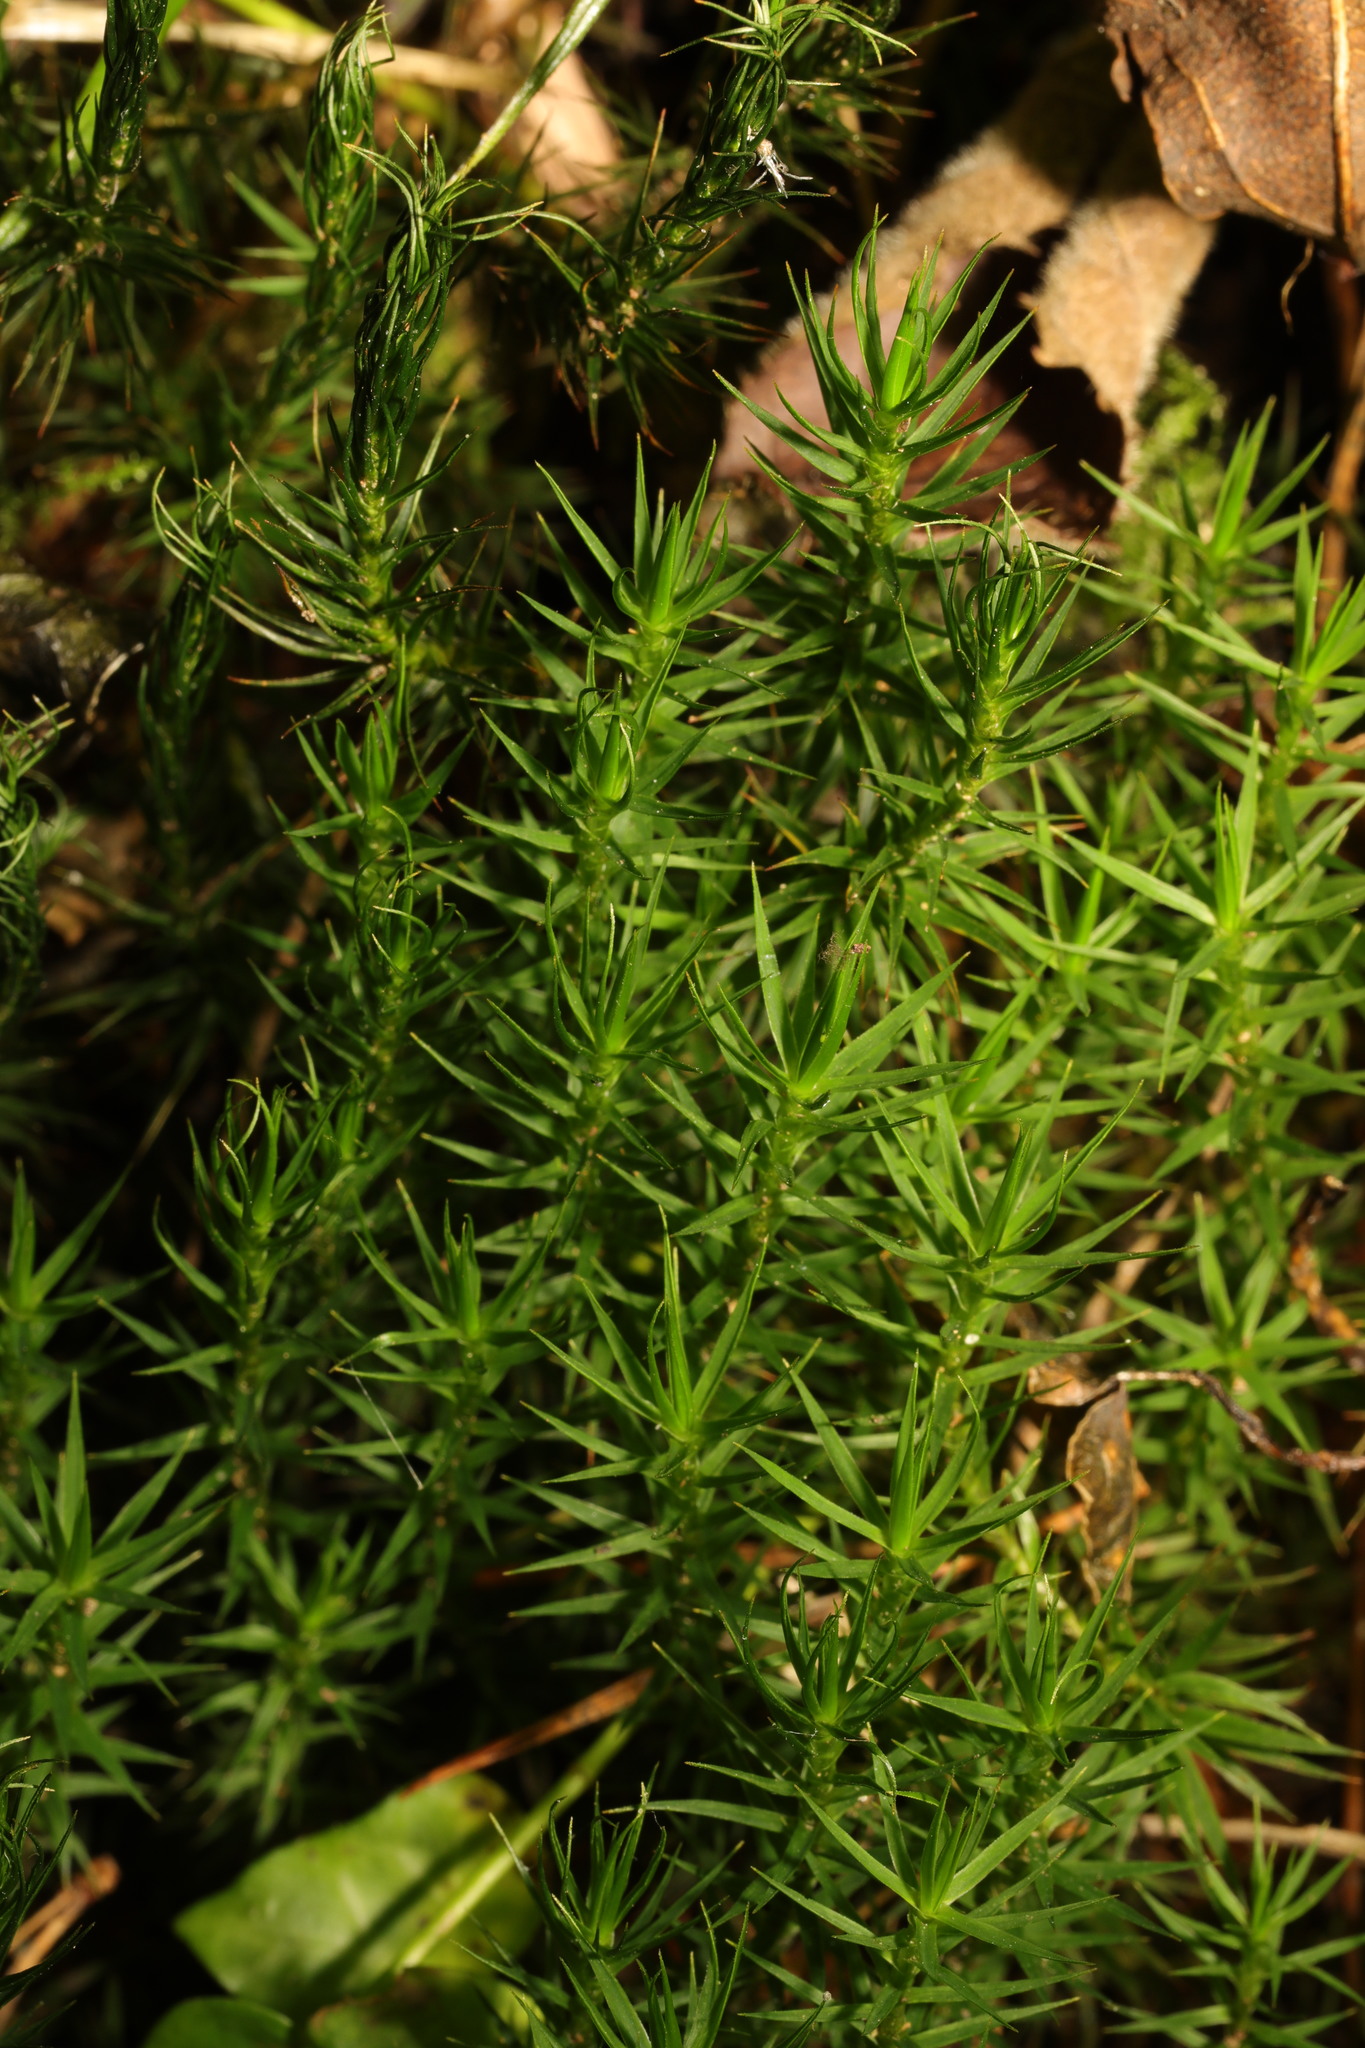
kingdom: Plantae
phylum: Bryophyta
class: Polytrichopsida
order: Polytrichales
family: Polytrichaceae
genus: Polytrichum
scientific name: Polytrichum formosum
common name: Bank haircap moss
